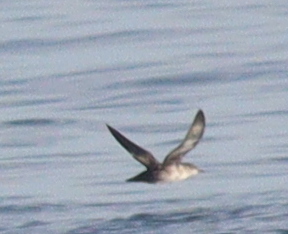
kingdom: Animalia
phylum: Chordata
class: Aves
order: Procellariiformes
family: Procellariidae
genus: Puffinus
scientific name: Puffinus mauretanicus
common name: Balearic shearwater
